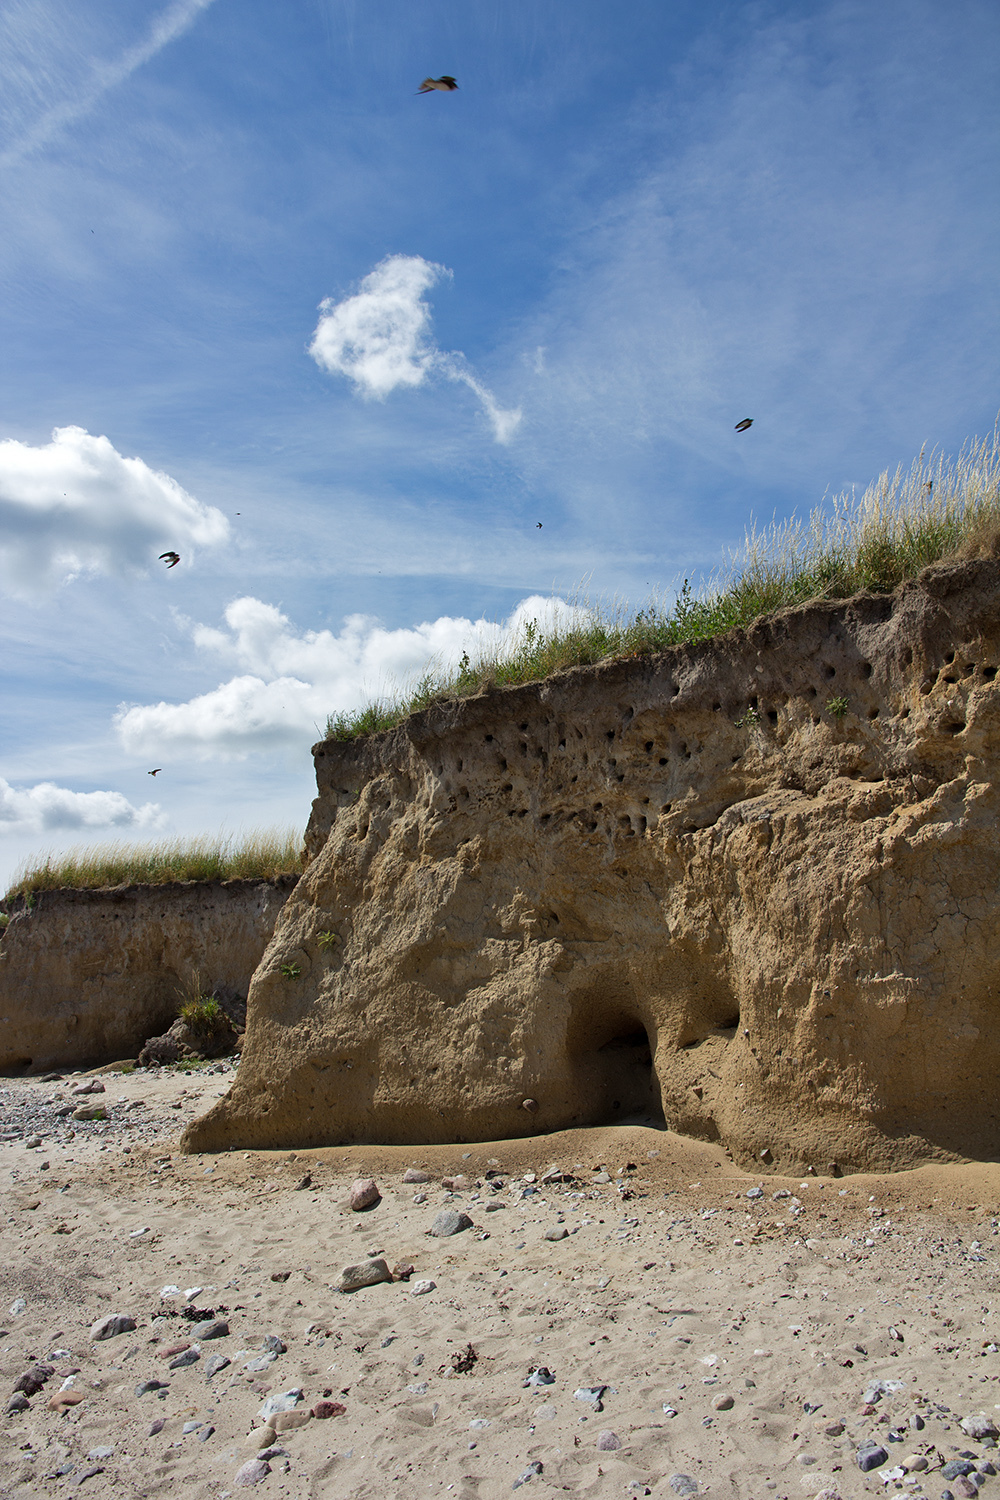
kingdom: Animalia
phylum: Chordata
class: Aves
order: Passeriformes
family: Hirundinidae
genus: Riparia
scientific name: Riparia riparia
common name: Sand martin
